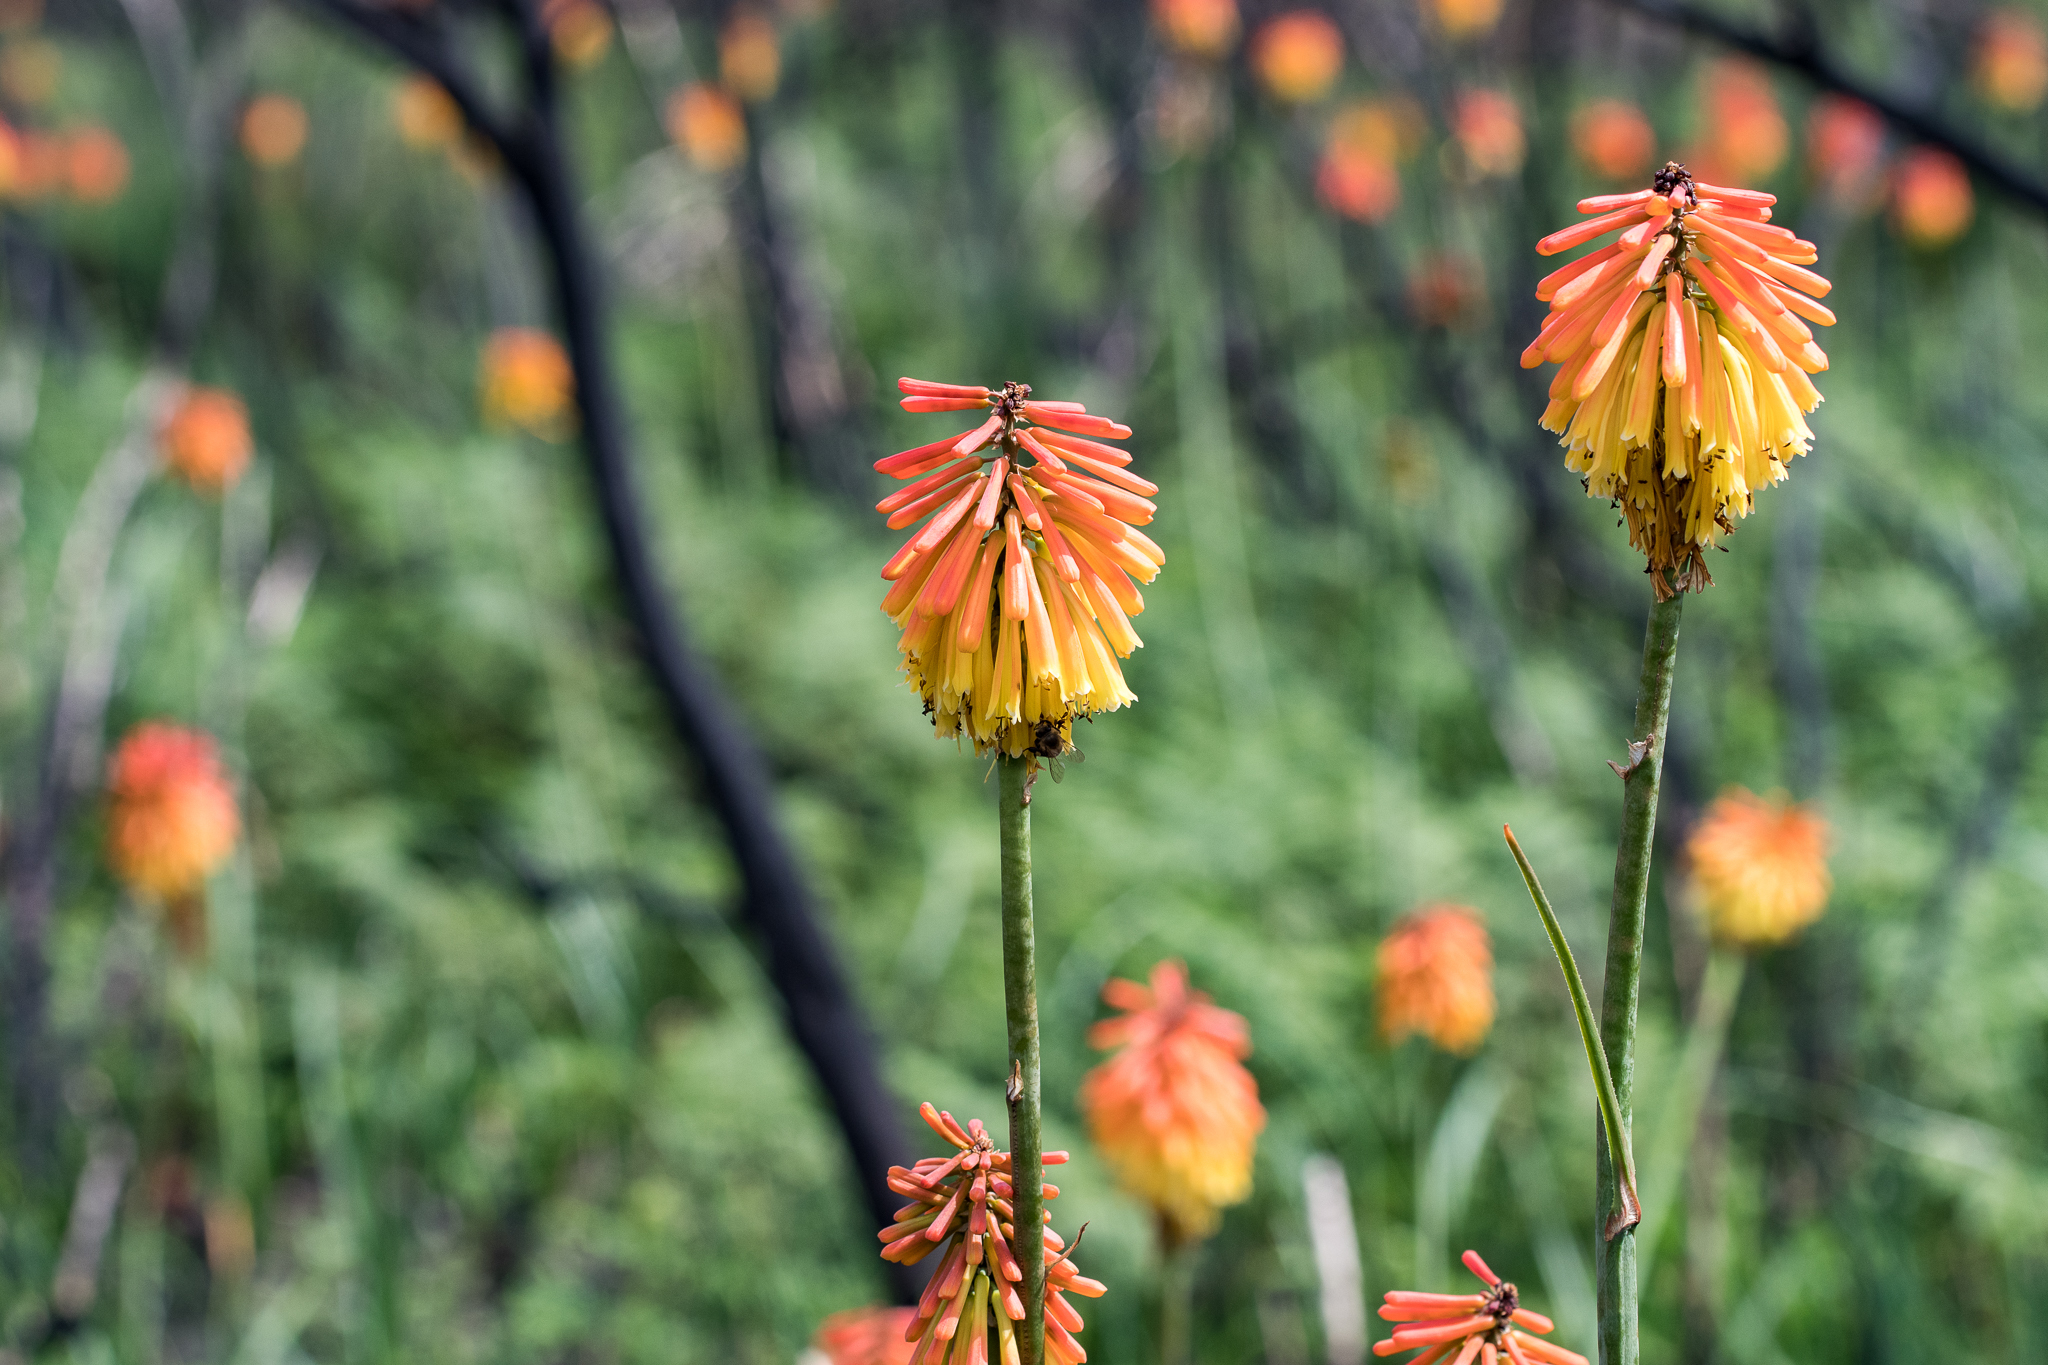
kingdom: Plantae
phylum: Tracheophyta
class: Liliopsida
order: Asparagales
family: Asphodelaceae
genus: Kniphofia
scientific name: Kniphofia uvaria
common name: Red-hot-poker
